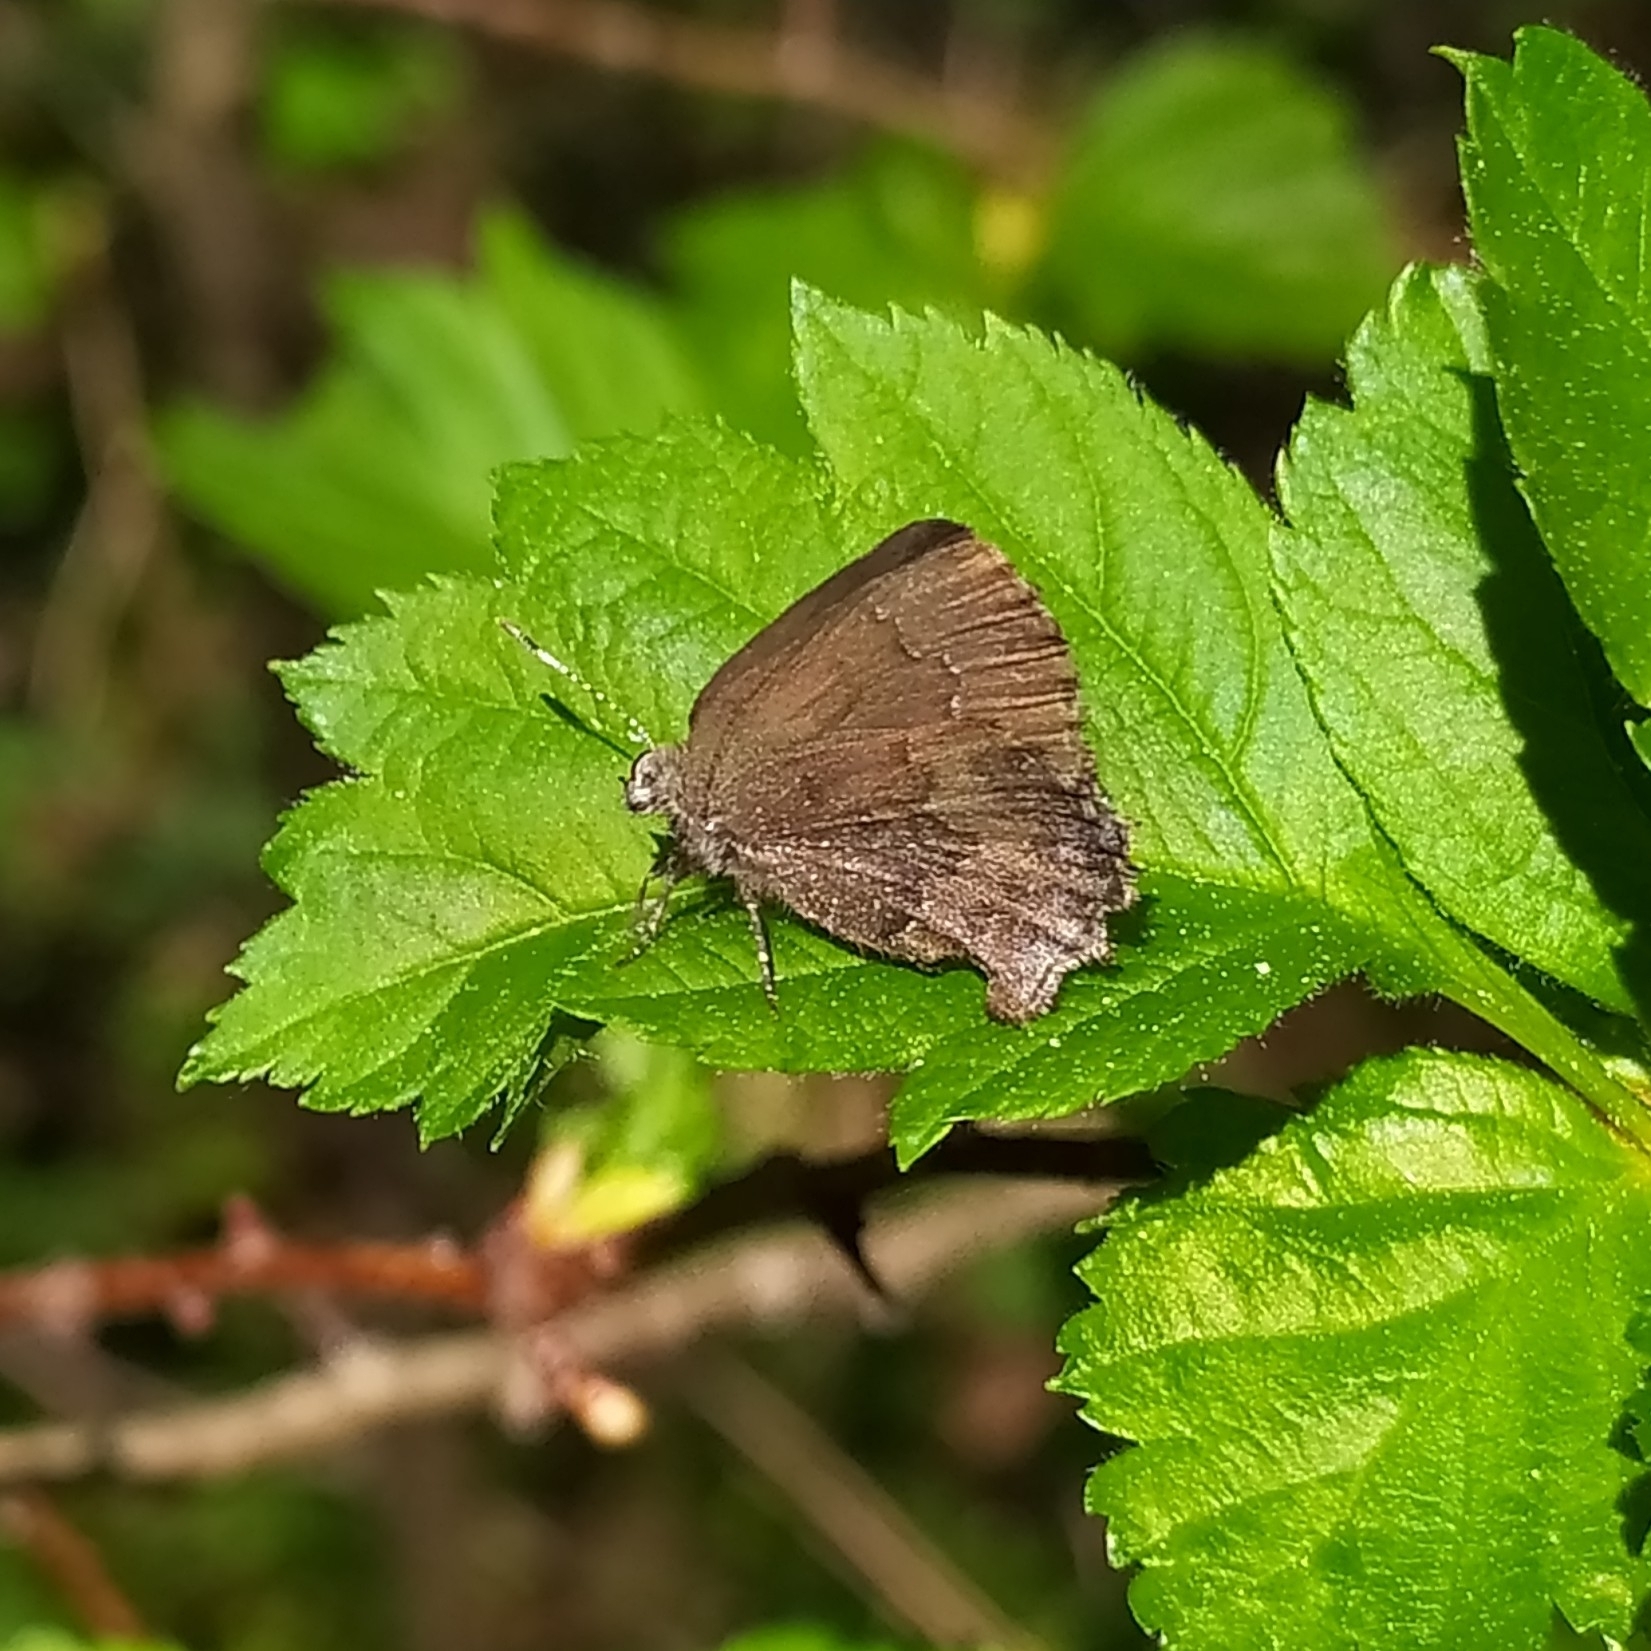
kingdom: Animalia
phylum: Arthropoda
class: Insecta
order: Lepidoptera
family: Lycaenidae
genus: Ginzia
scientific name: Ginzia Ahlbergia frivaldszkyi
